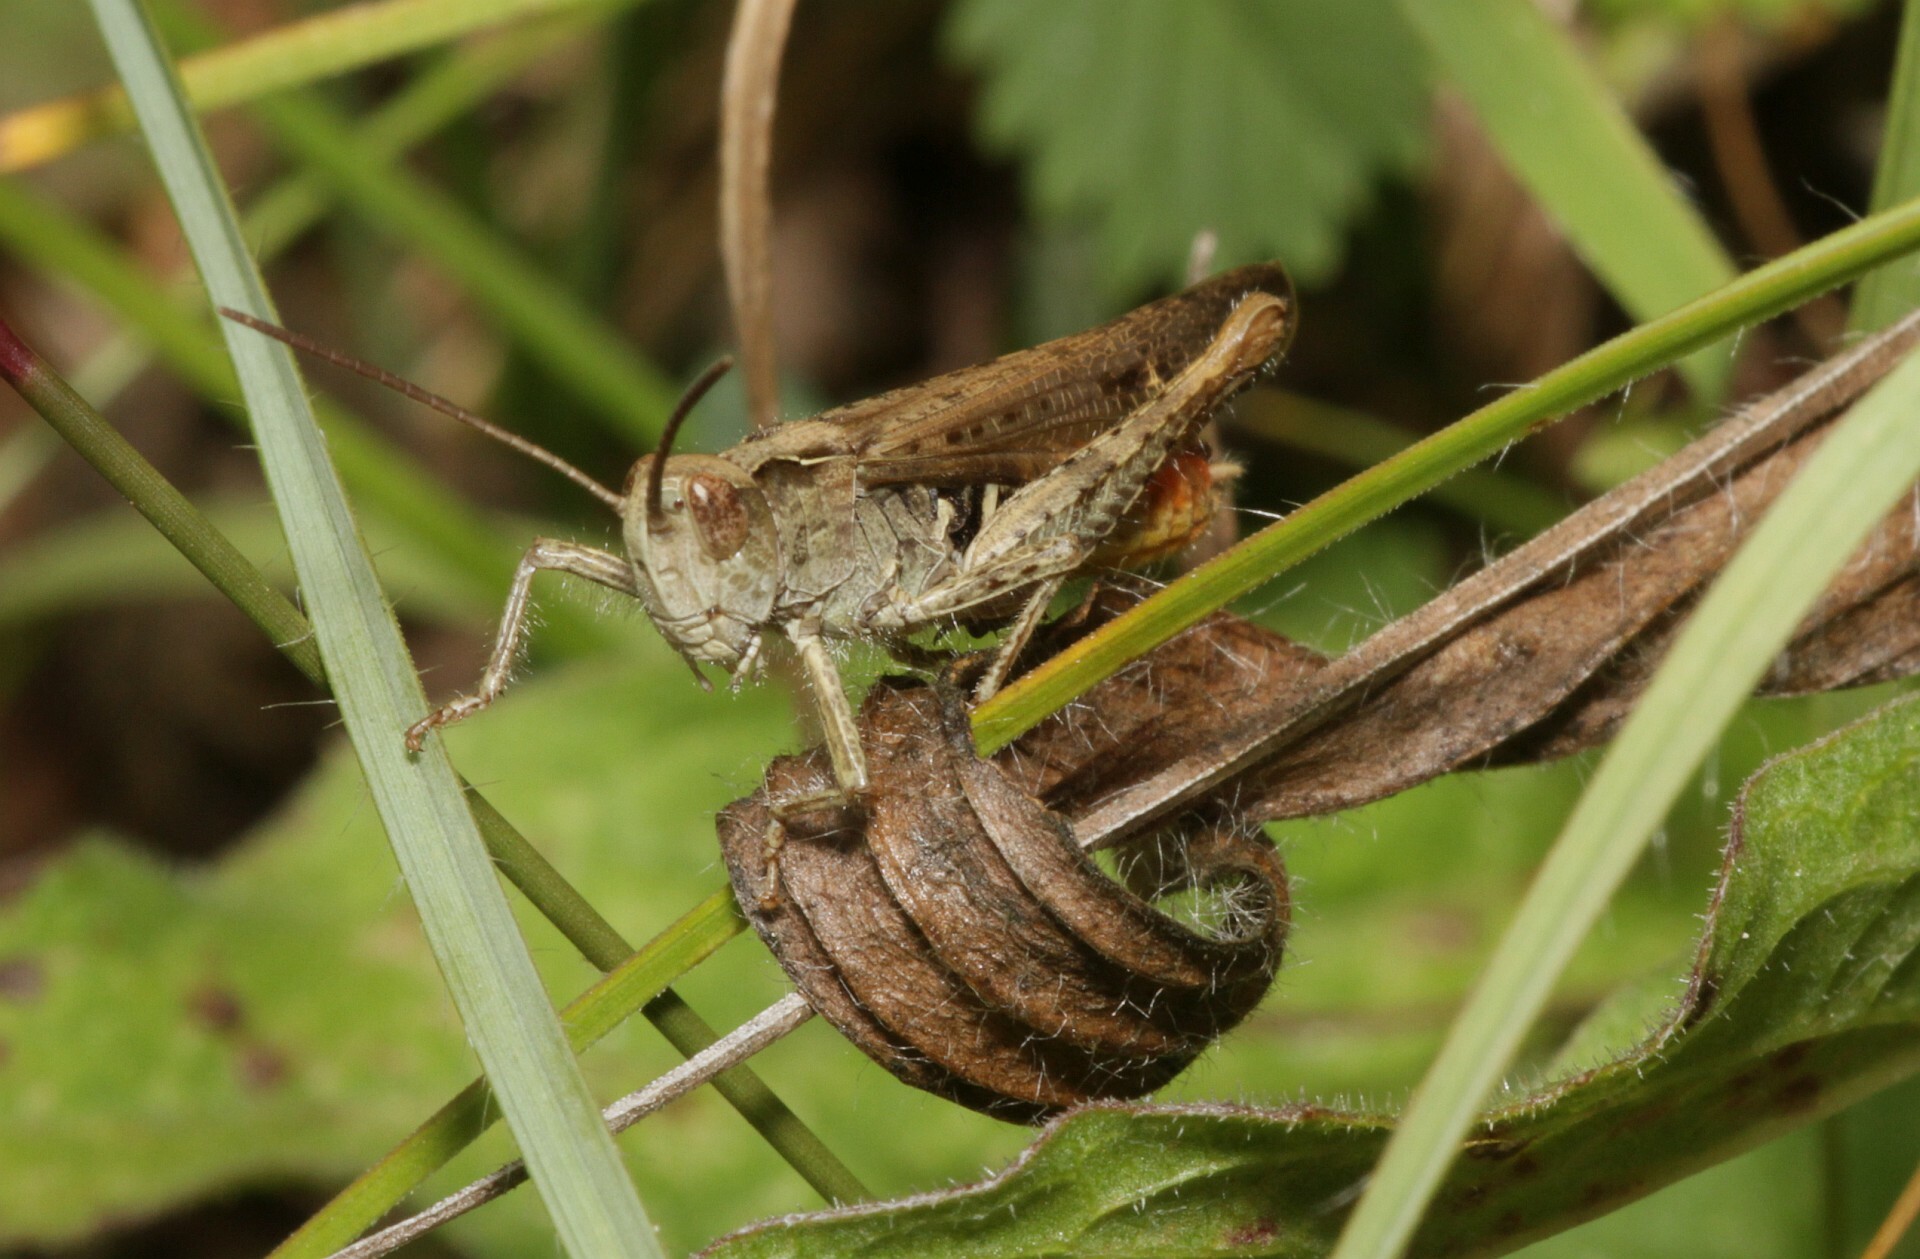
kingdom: Animalia
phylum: Arthropoda
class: Insecta
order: Orthoptera
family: Acrididae
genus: Chorthippus
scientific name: Chorthippus brunneus
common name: Field grasshopper
